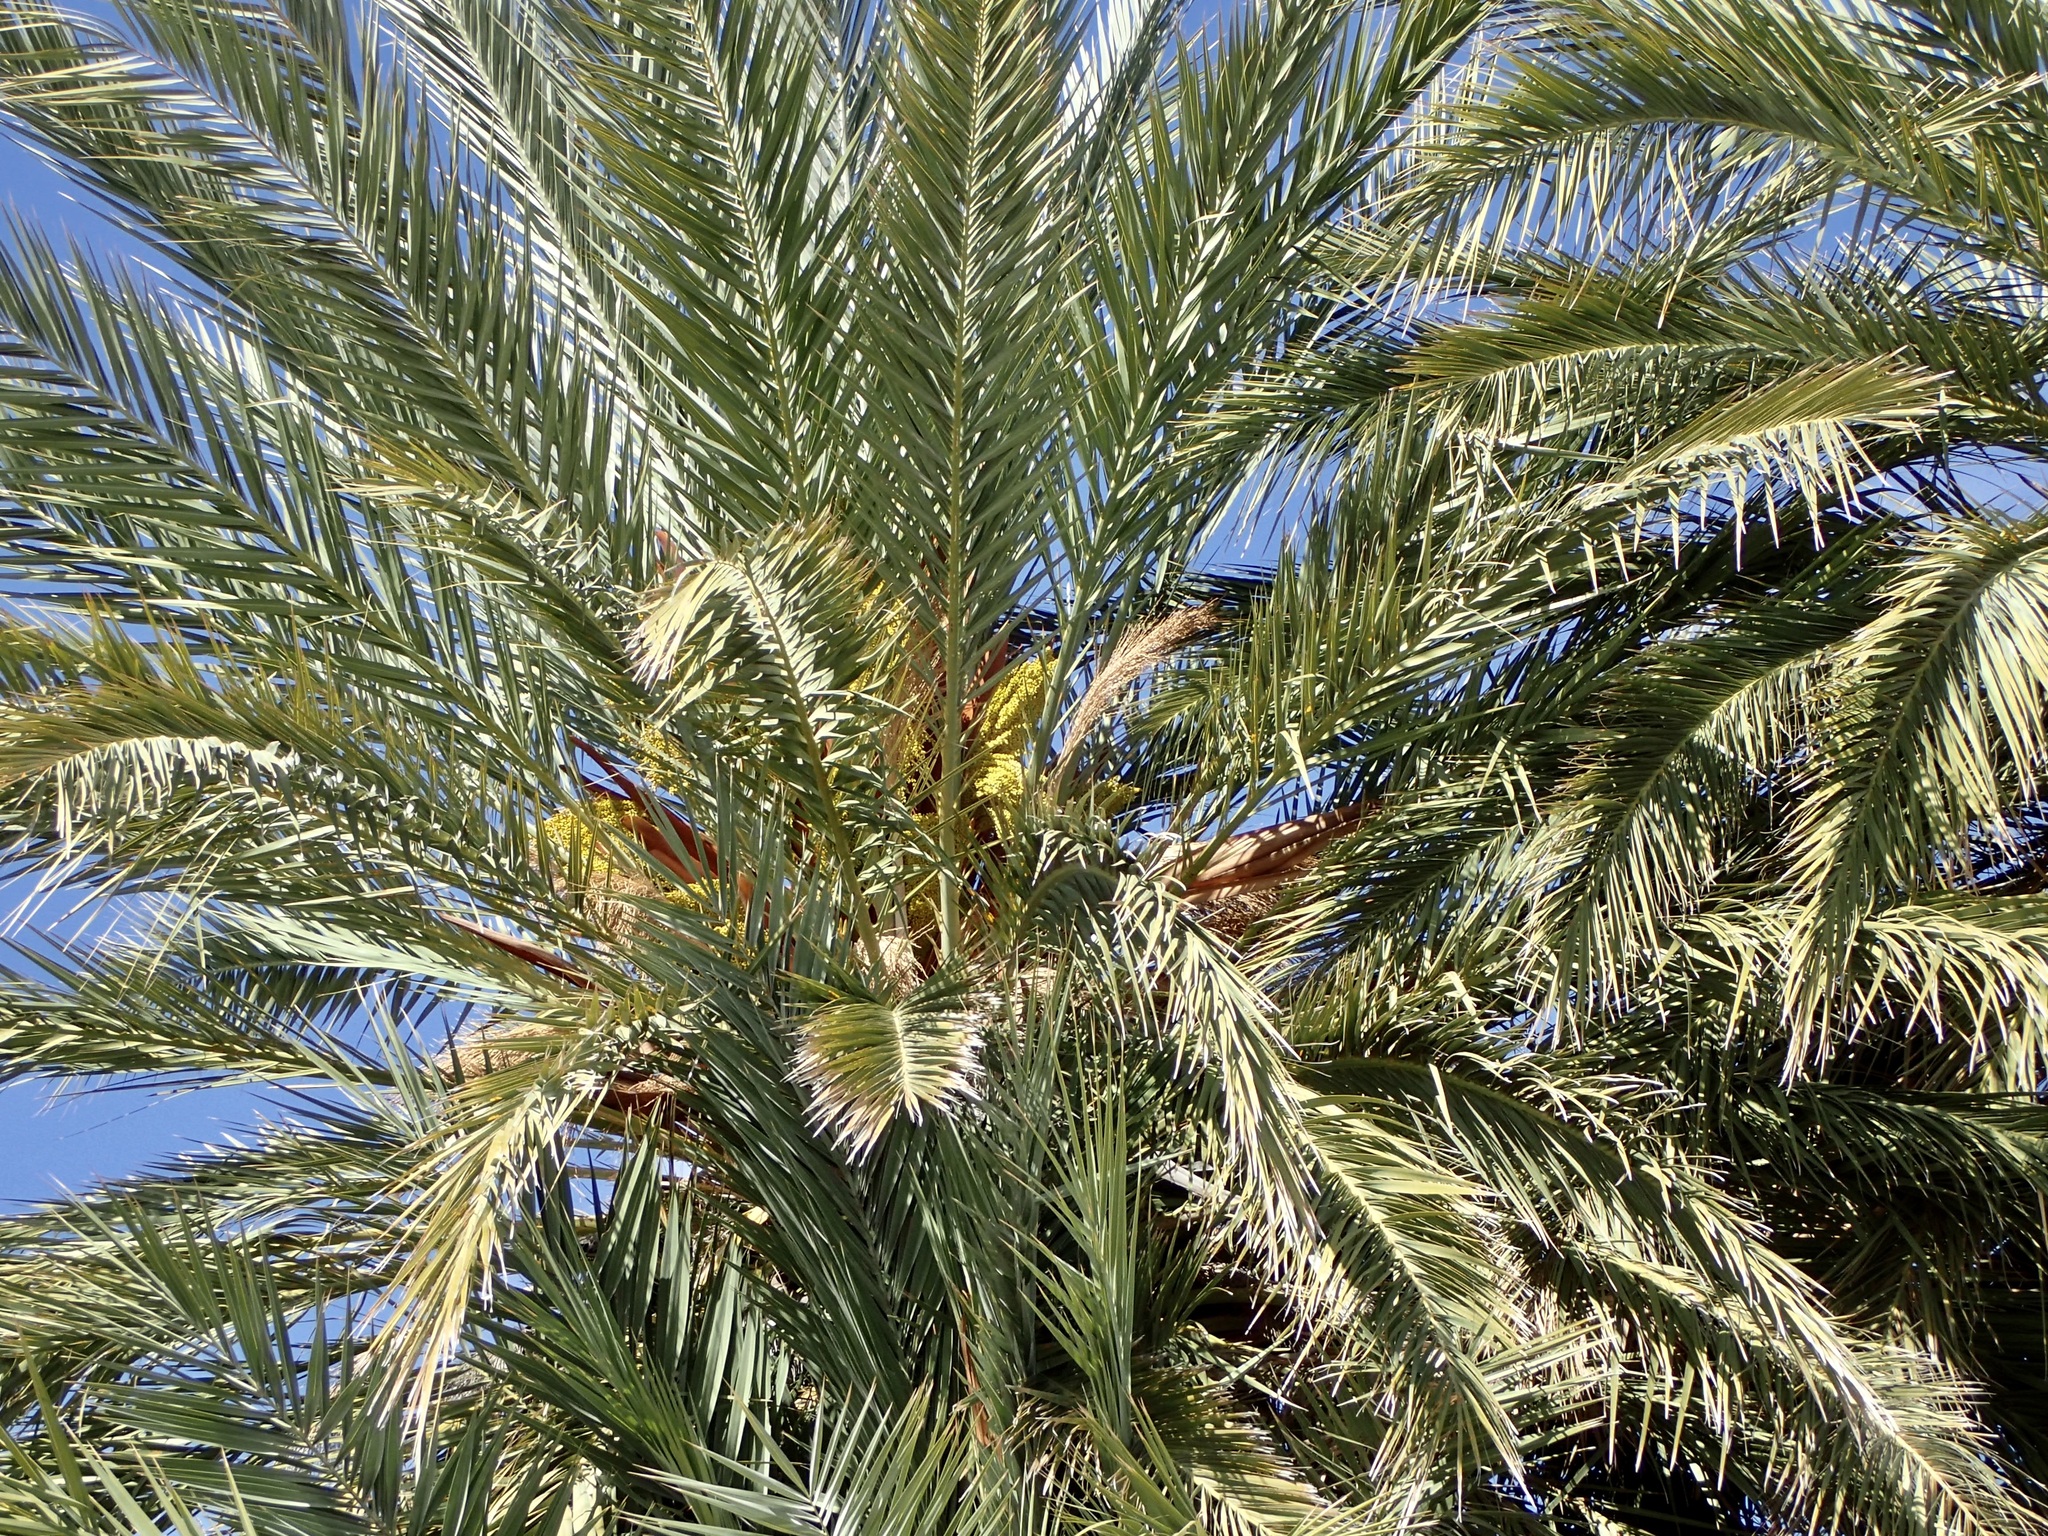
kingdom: Plantae
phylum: Tracheophyta
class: Liliopsida
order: Arecales
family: Arecaceae
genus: Phoenix
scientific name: Phoenix dactylifera
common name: Date palm
